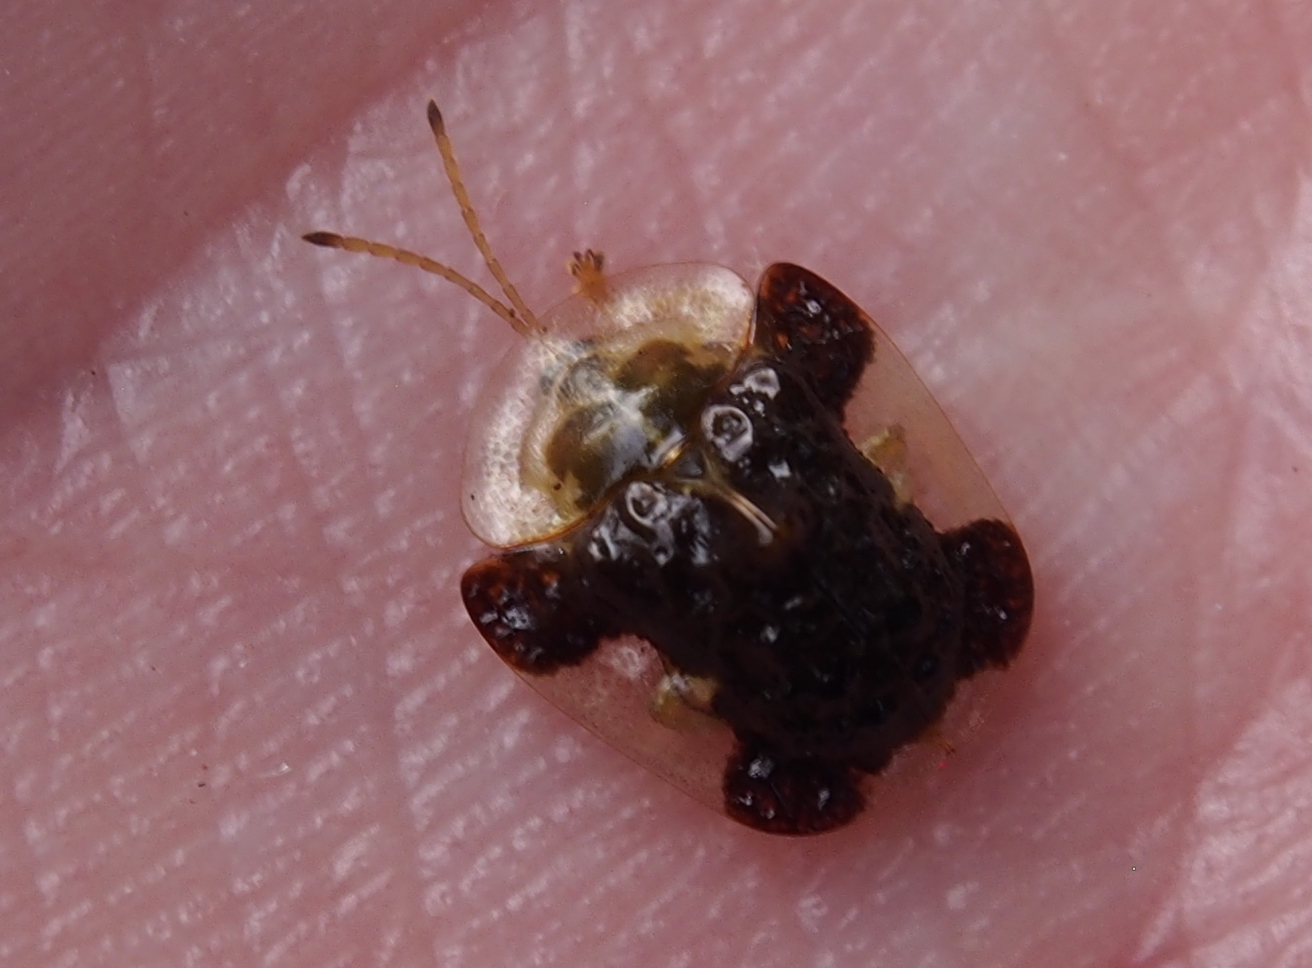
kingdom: Animalia
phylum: Arthropoda
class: Insecta
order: Coleoptera
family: Chrysomelidae
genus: Helocassis
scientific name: Helocassis clavata
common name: Clavate tortoise beetle
